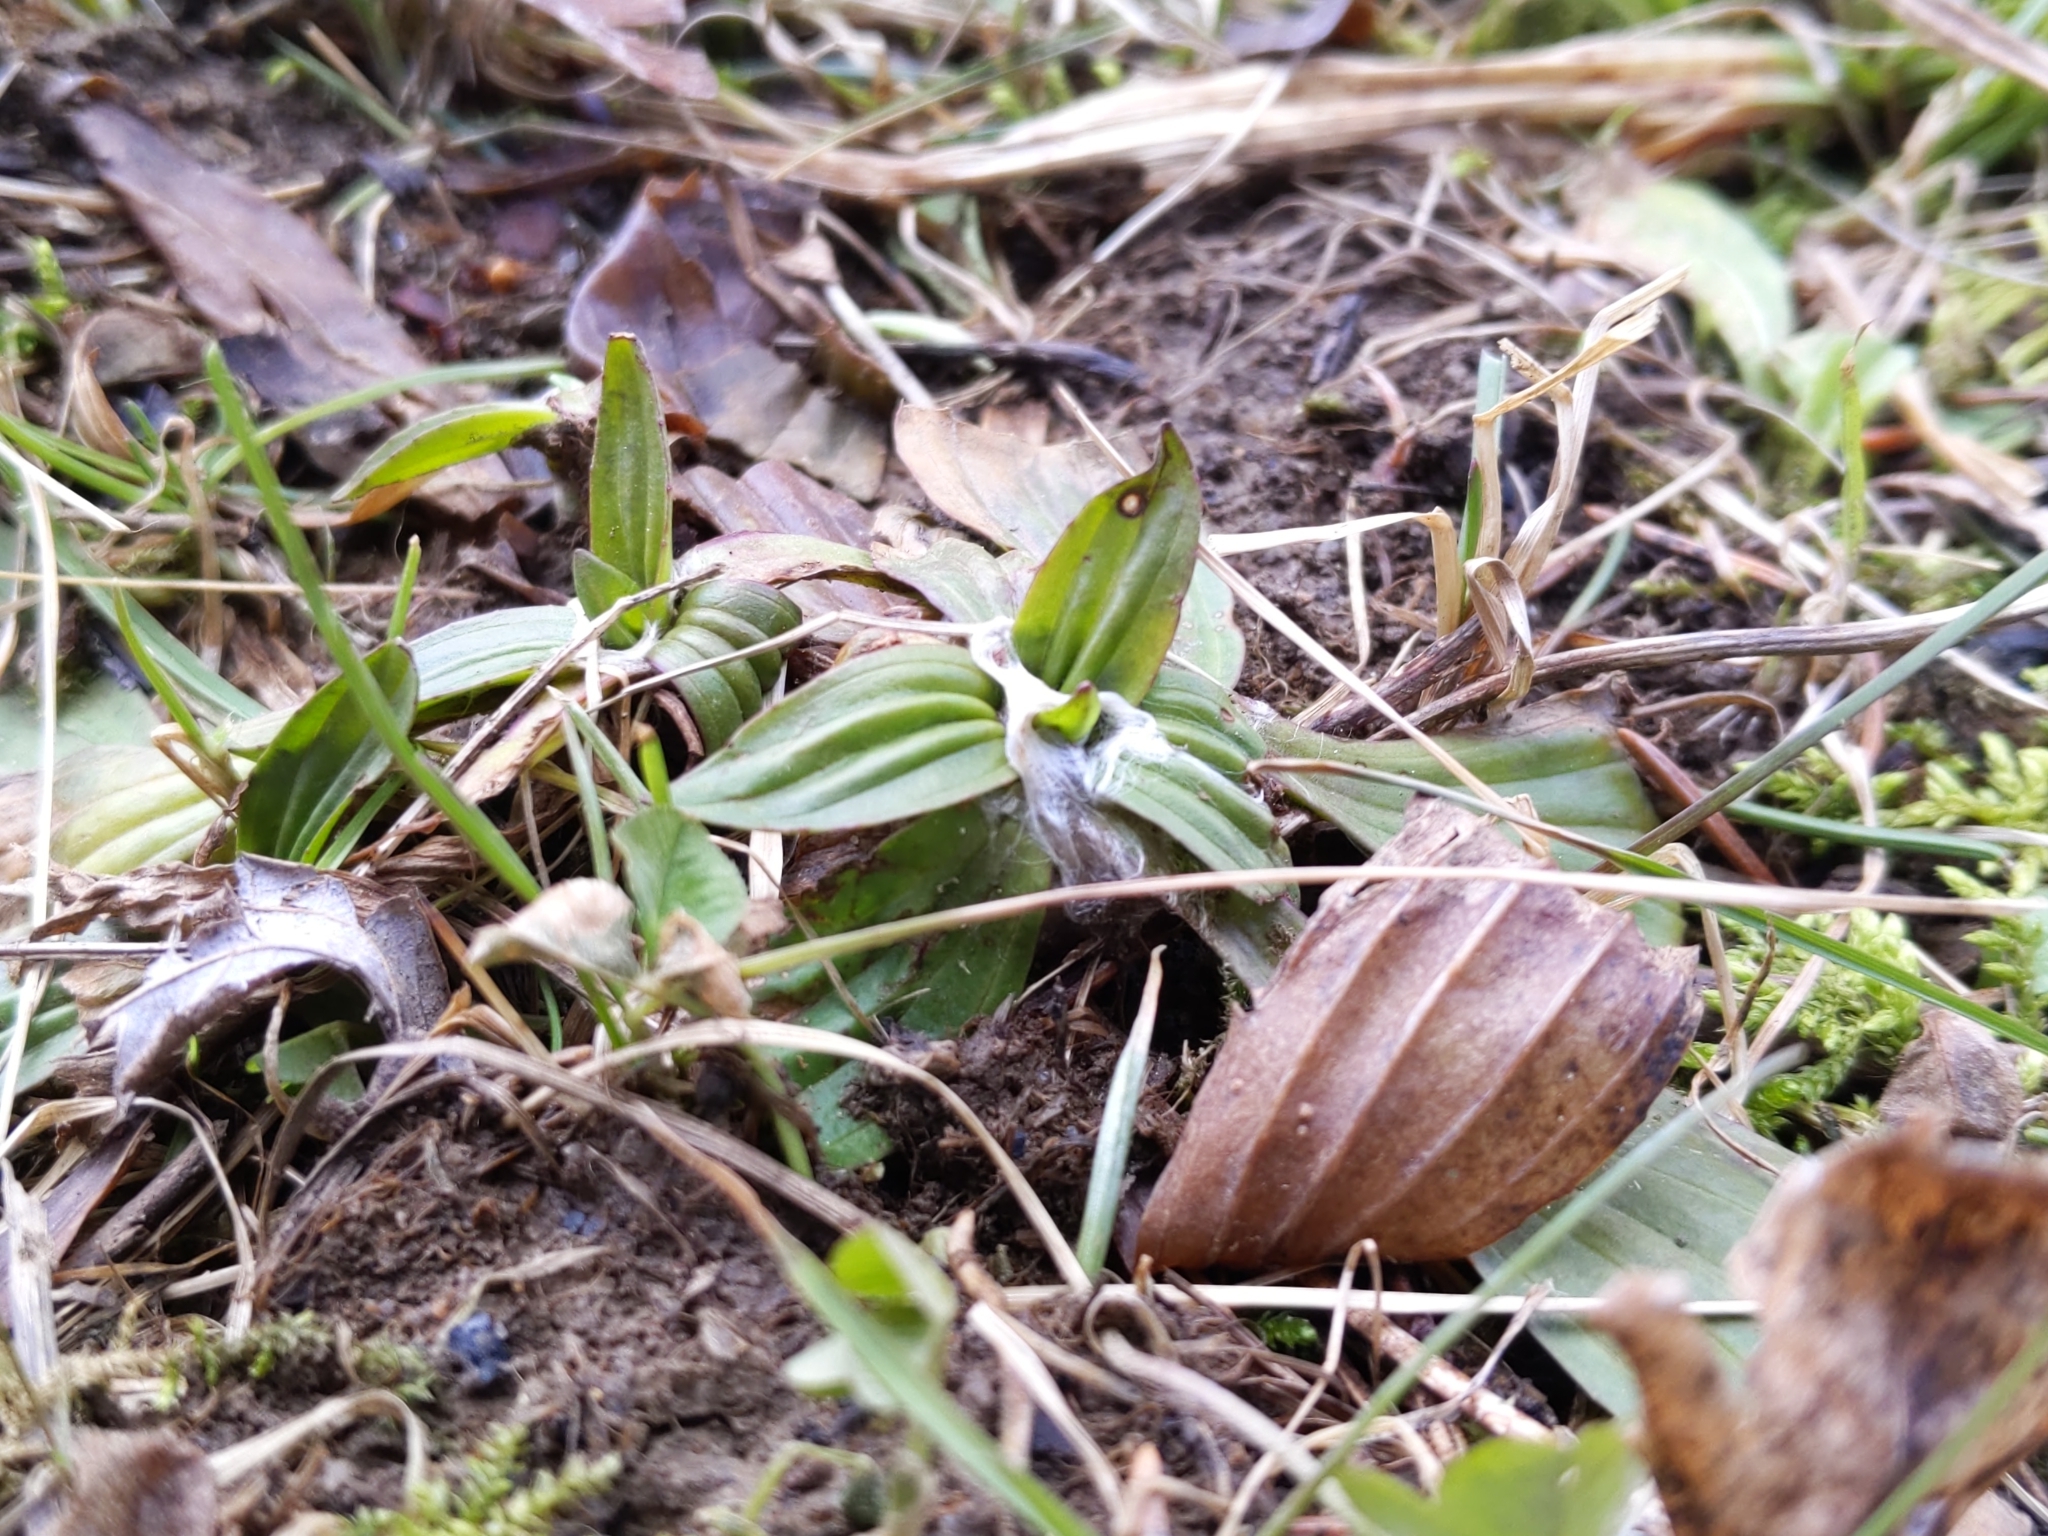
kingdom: Plantae
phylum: Tracheophyta
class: Magnoliopsida
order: Lamiales
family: Plantaginaceae
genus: Plantago
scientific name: Plantago lanceolata
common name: Ribwort plantain
